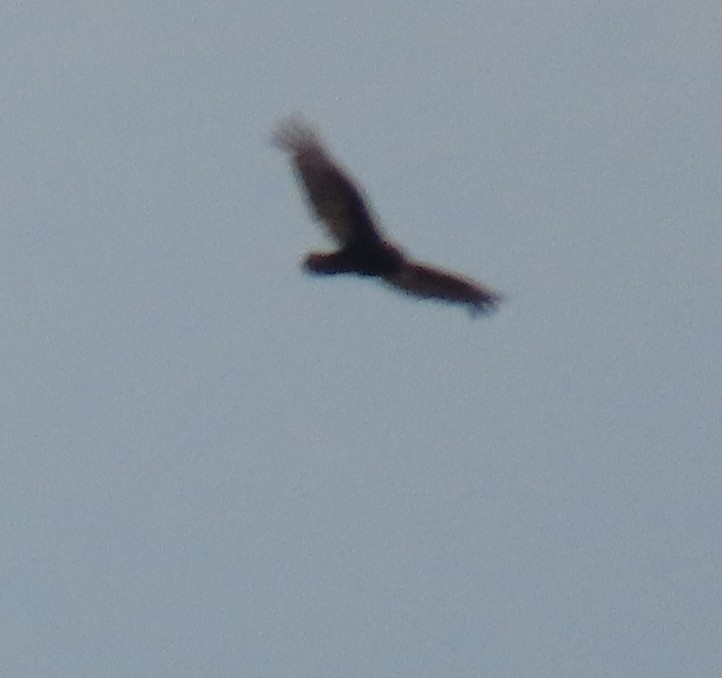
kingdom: Animalia
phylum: Chordata
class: Aves
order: Accipitriformes
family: Cathartidae
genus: Cathartes
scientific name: Cathartes aura
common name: Turkey vulture
